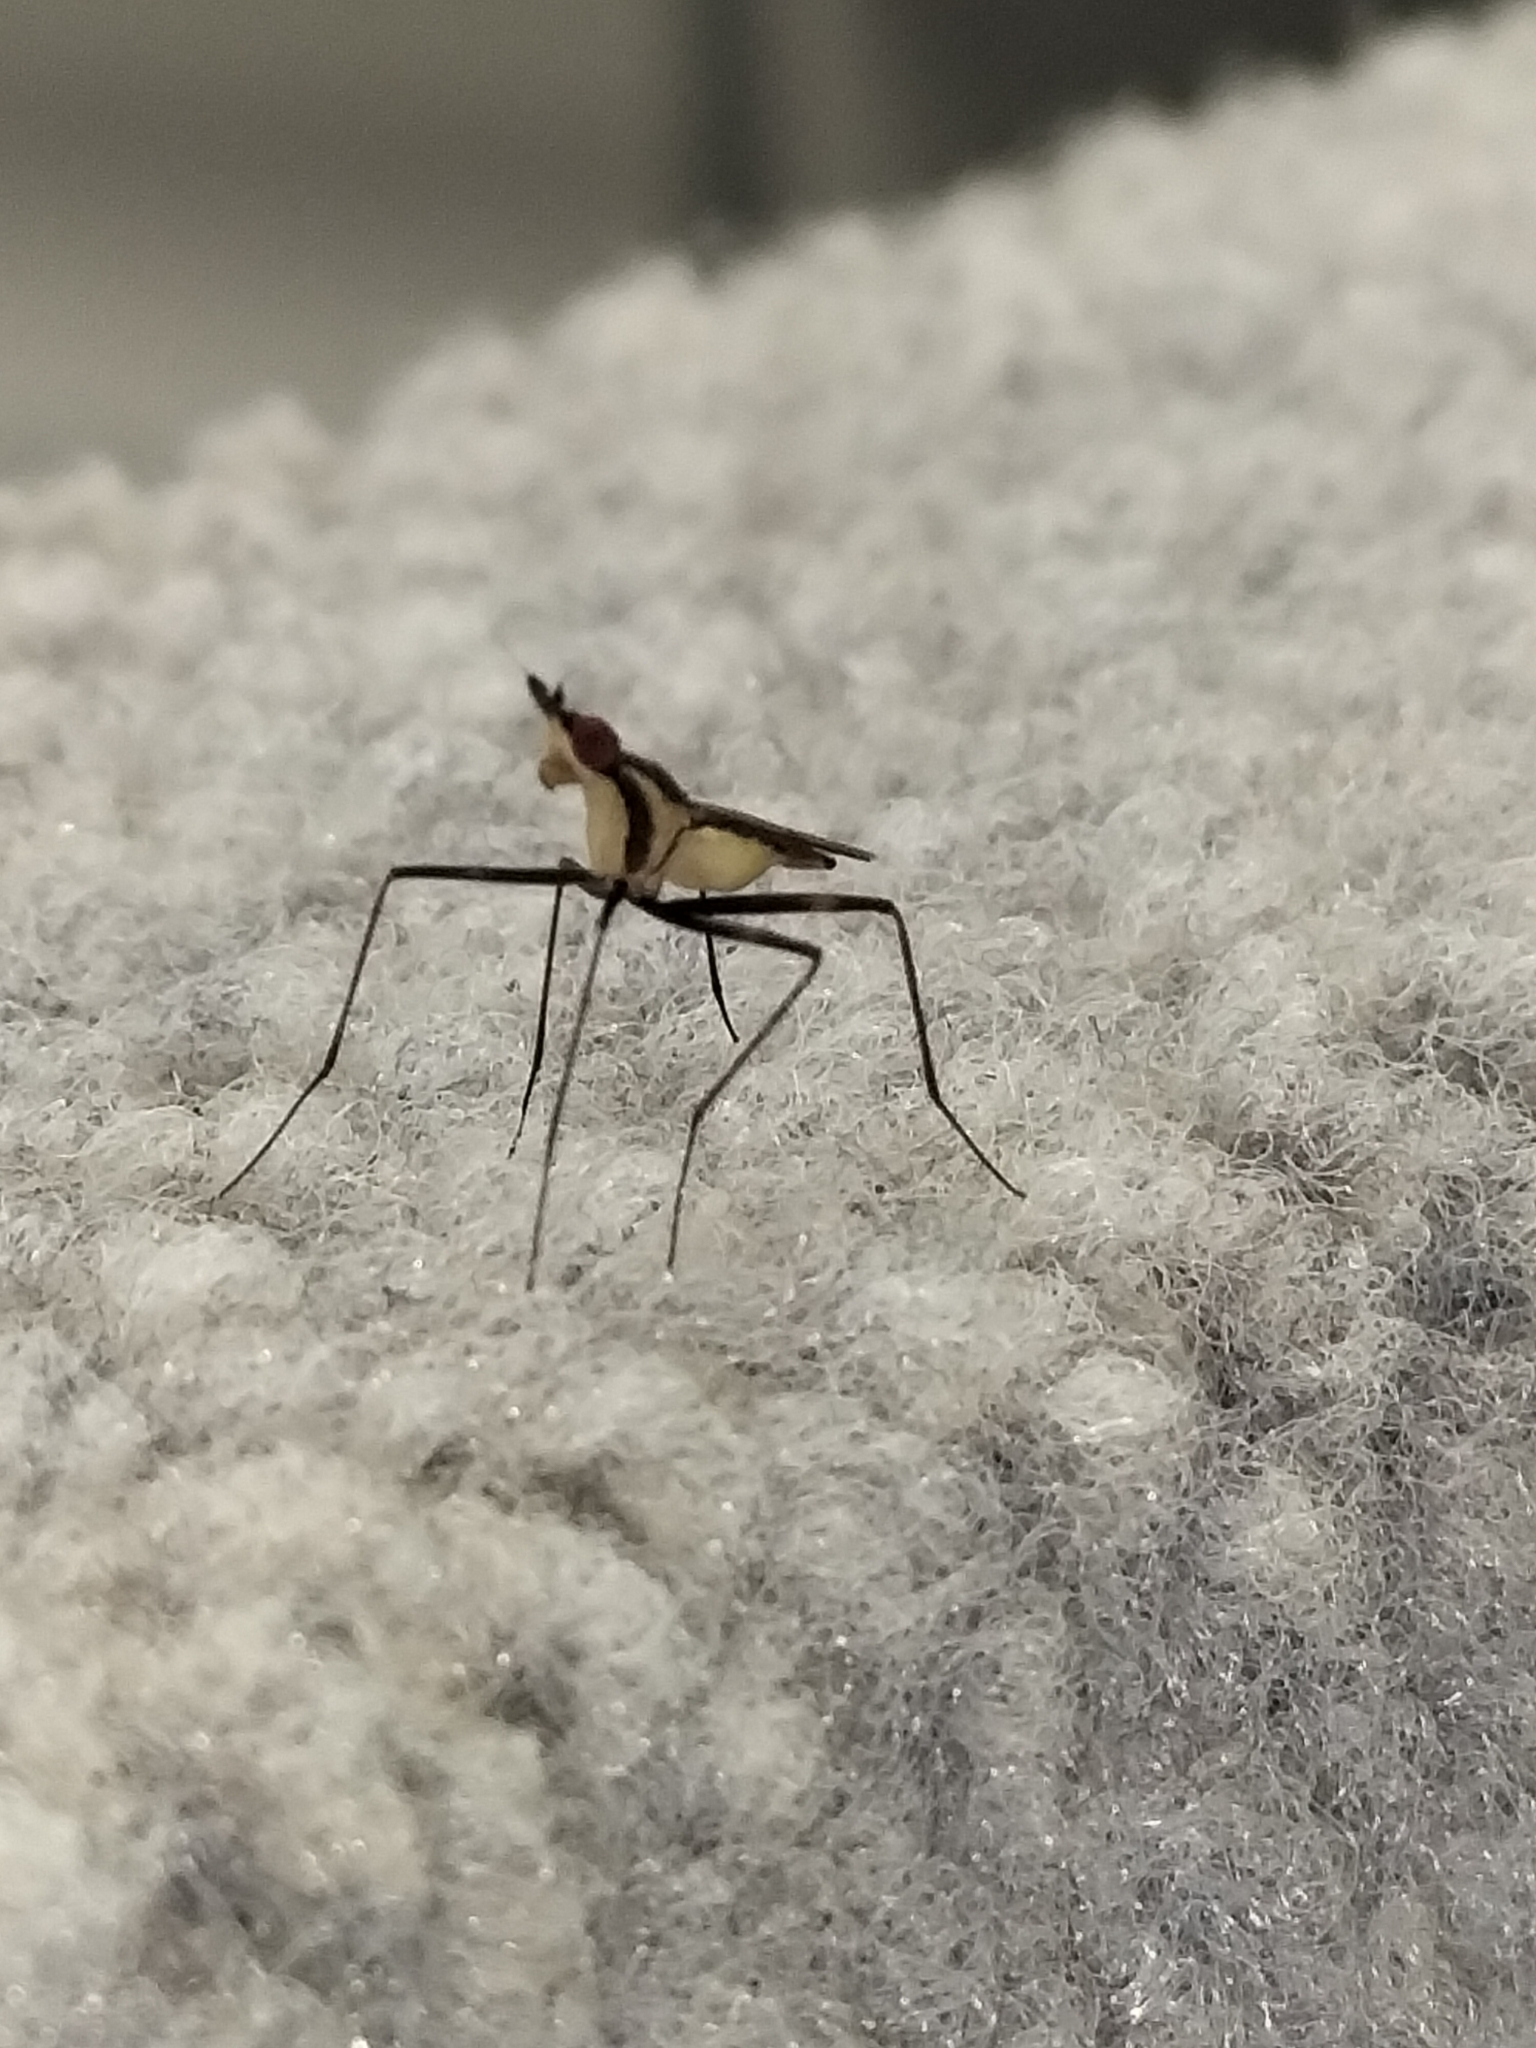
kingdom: Animalia
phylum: Arthropoda
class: Insecta
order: Diptera
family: Neriidae
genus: Telostylinus
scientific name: Telostylinus lineolatus
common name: Banana stalk fly
